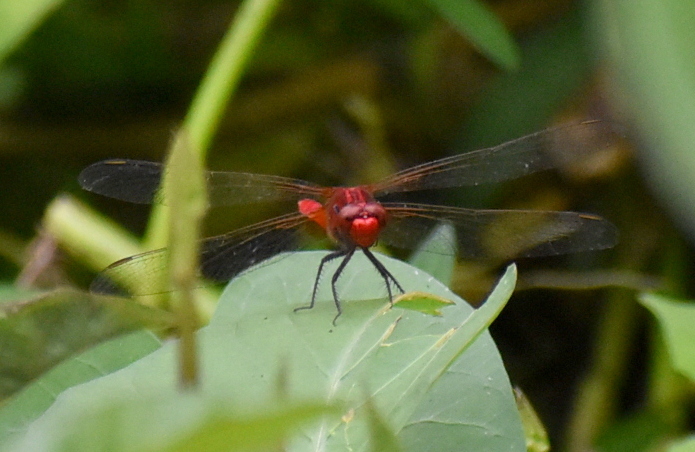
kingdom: Animalia
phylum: Arthropoda
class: Insecta
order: Odonata
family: Libellulidae
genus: Rhodothemis
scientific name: Rhodothemis rufa
